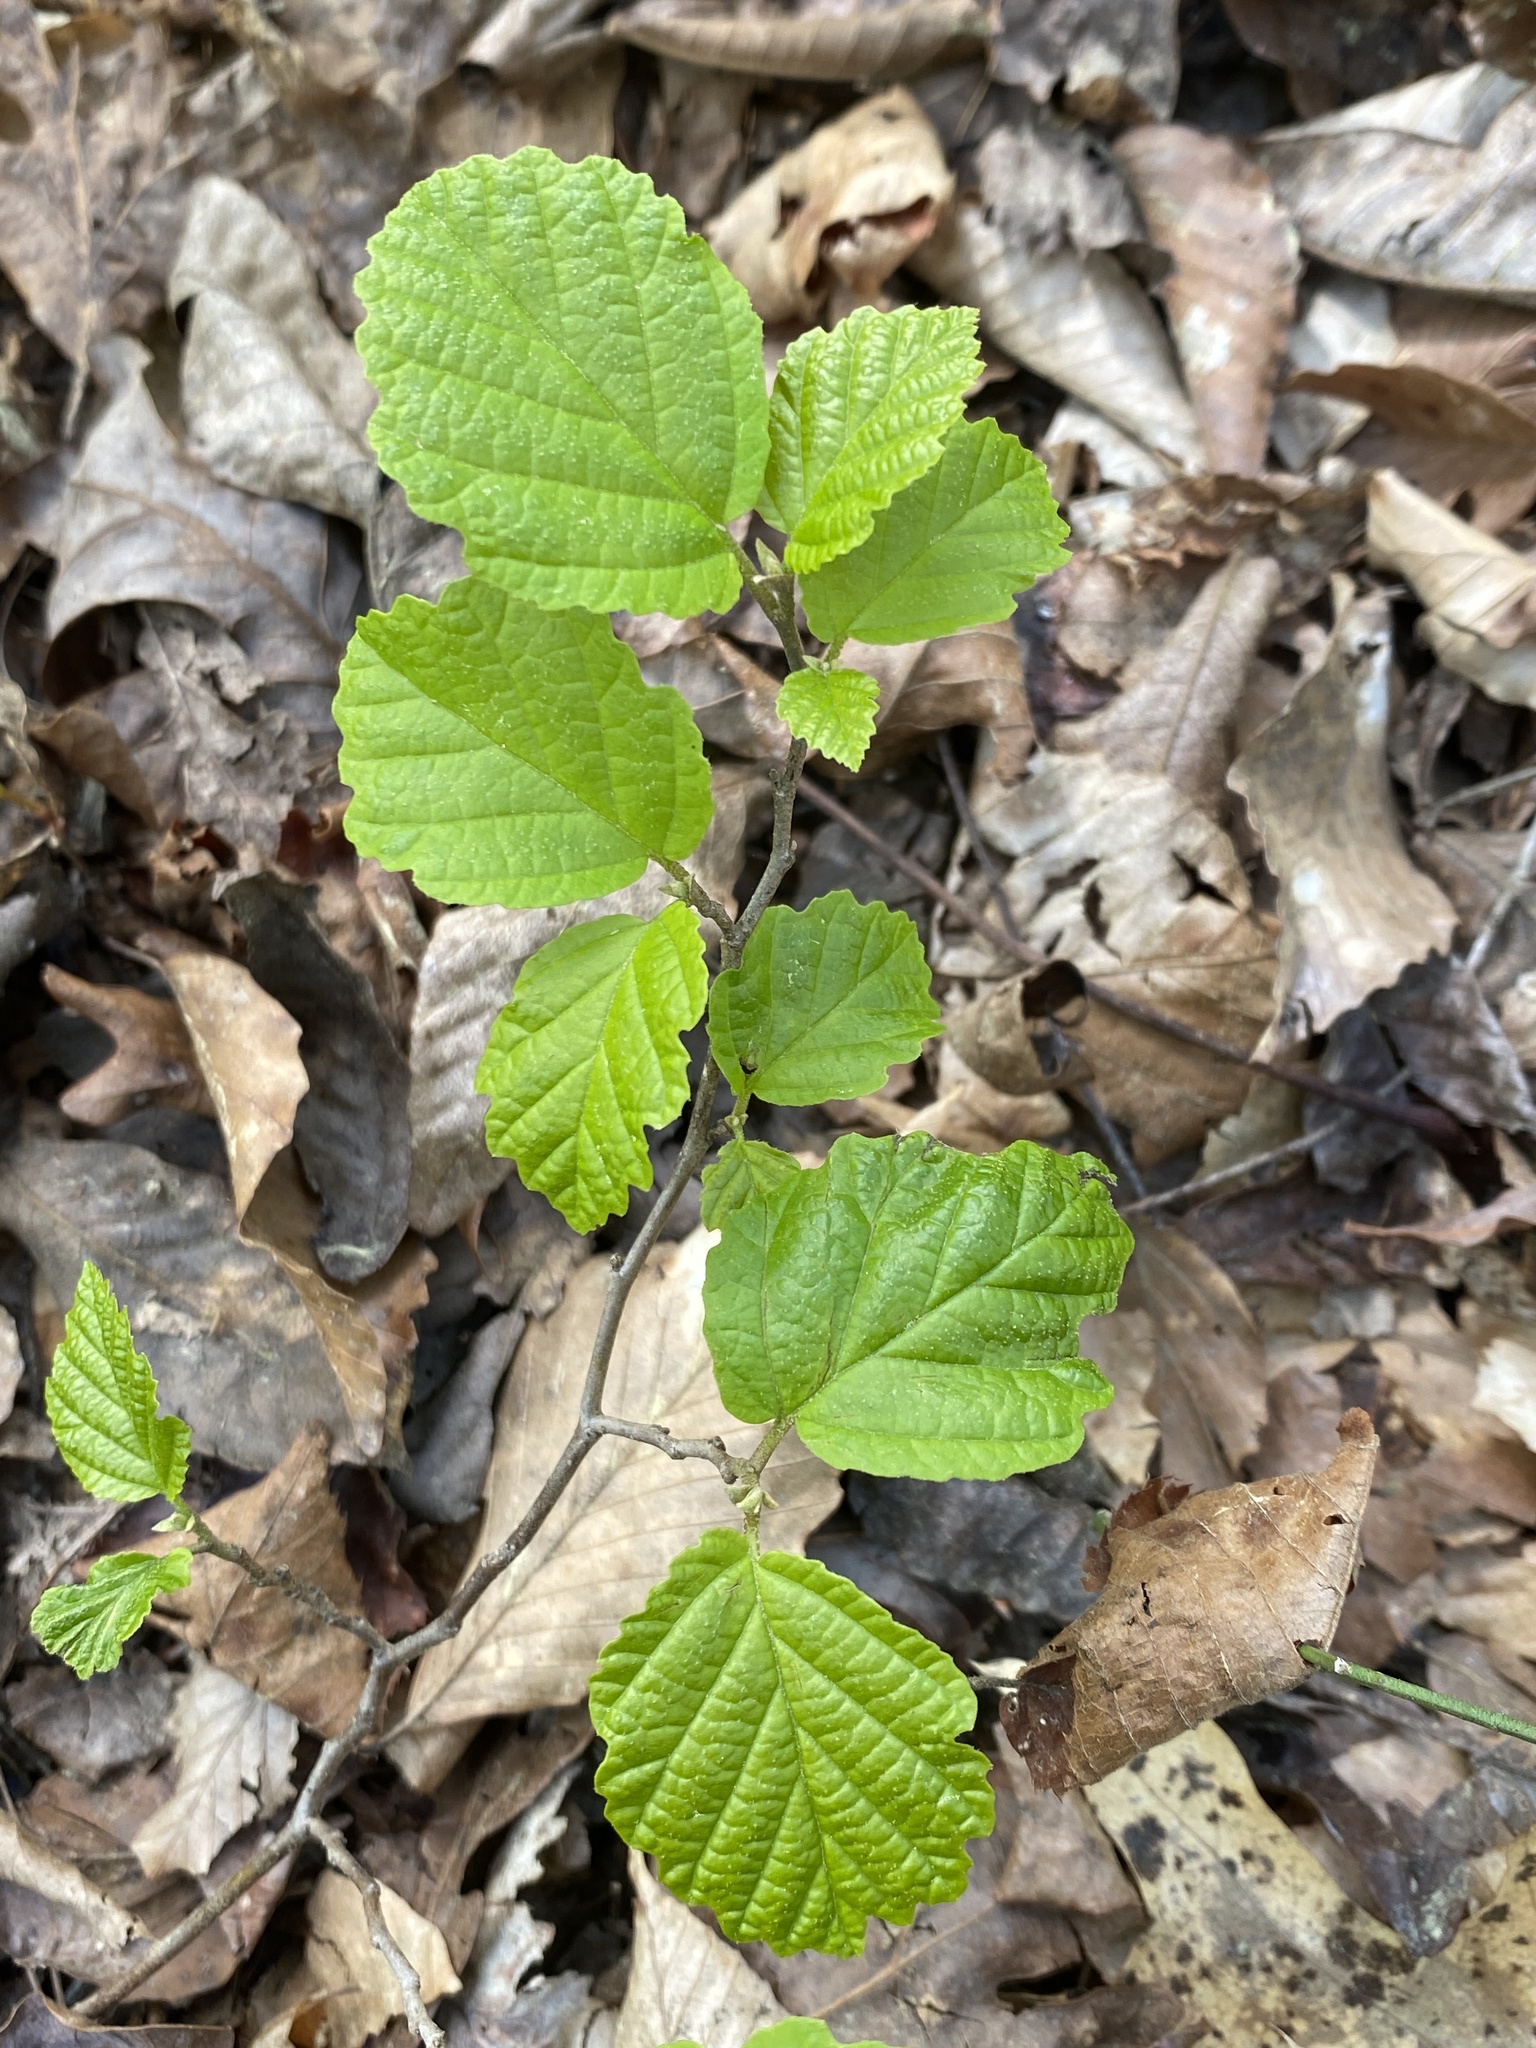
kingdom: Plantae
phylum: Tracheophyta
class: Magnoliopsida
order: Saxifragales
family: Hamamelidaceae
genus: Hamamelis
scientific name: Hamamelis virginiana
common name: Witch-hazel
